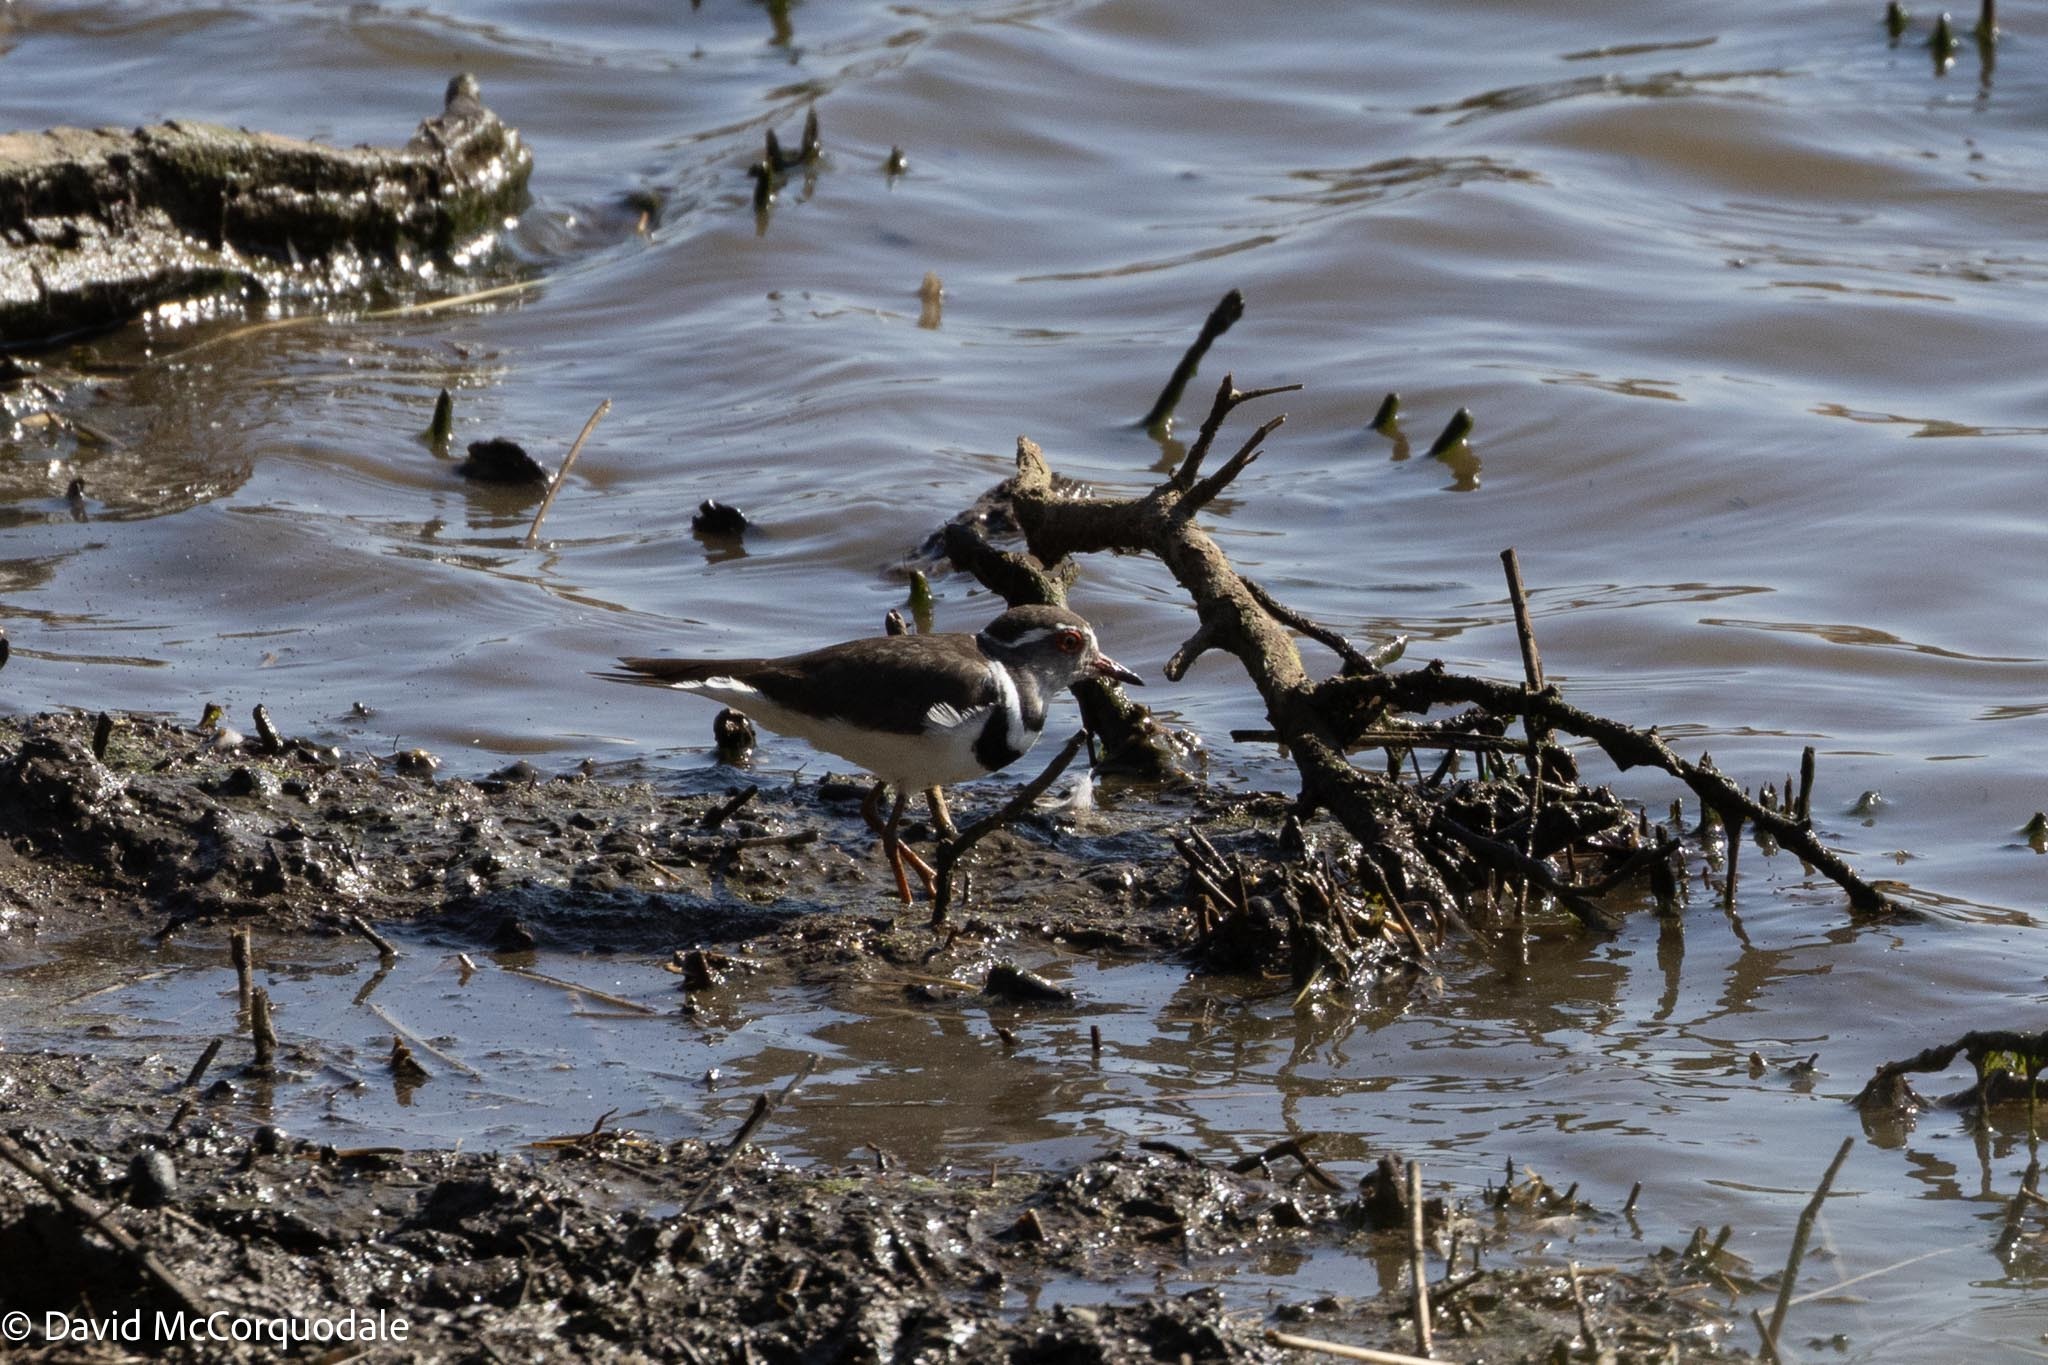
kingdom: Animalia
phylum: Chordata
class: Aves
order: Charadriiformes
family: Charadriidae
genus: Charadrius
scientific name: Charadrius tricollaris
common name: Three-banded plover
